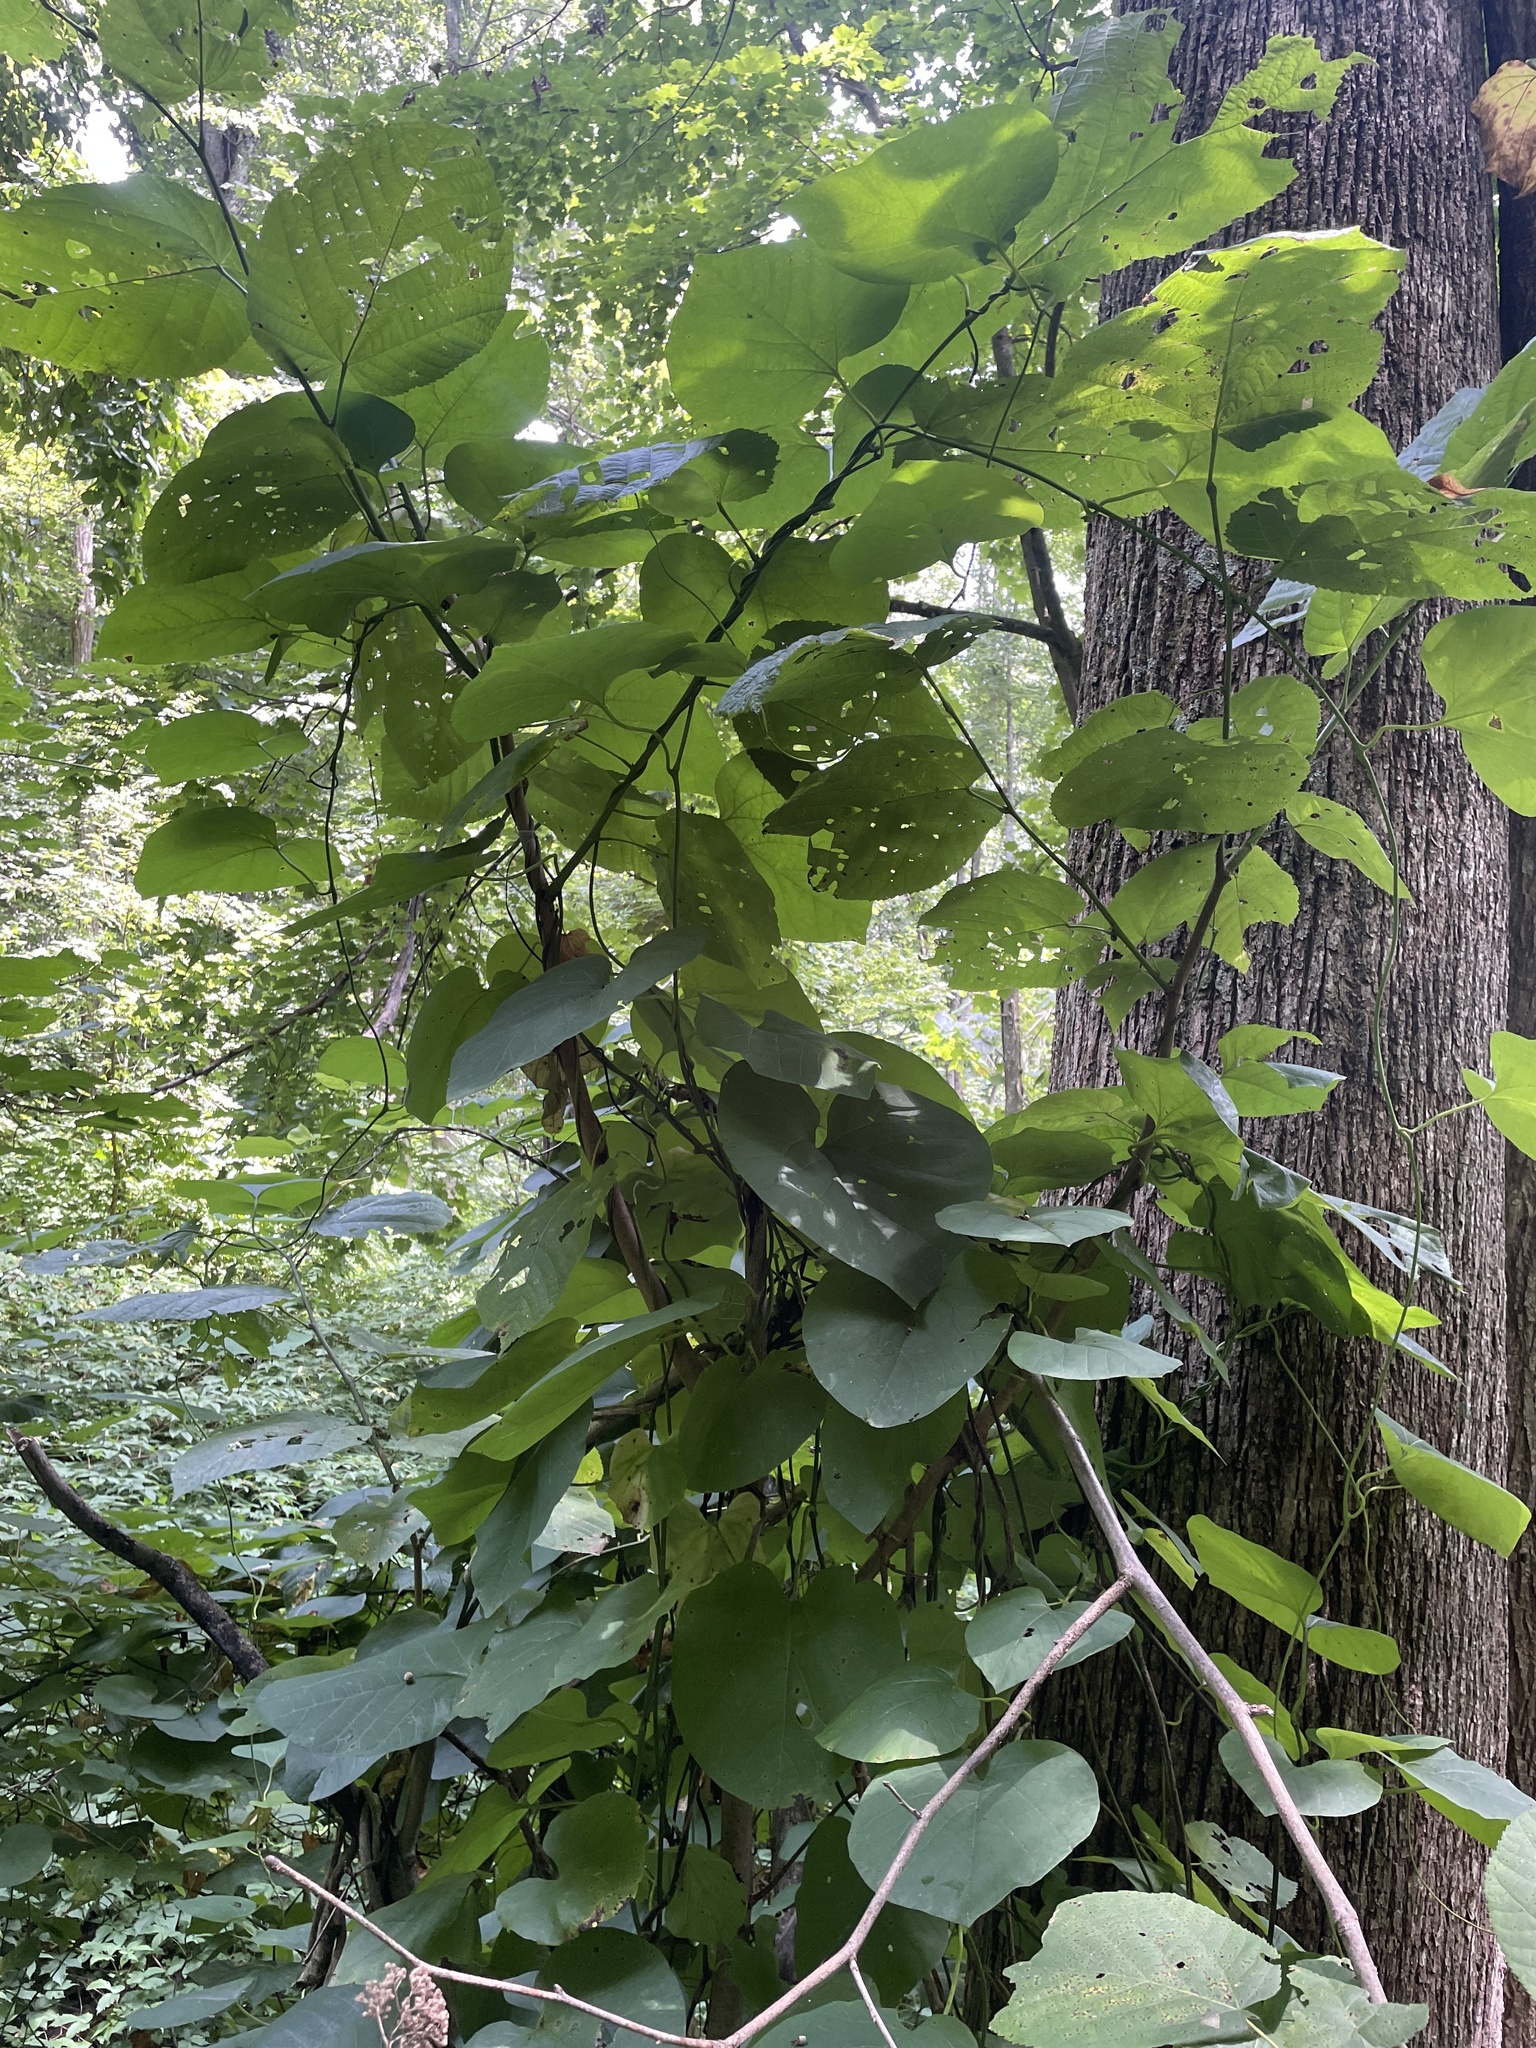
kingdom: Plantae
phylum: Tracheophyta
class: Magnoliopsida
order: Piperales
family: Aristolochiaceae
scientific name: Aristolochiaceae
